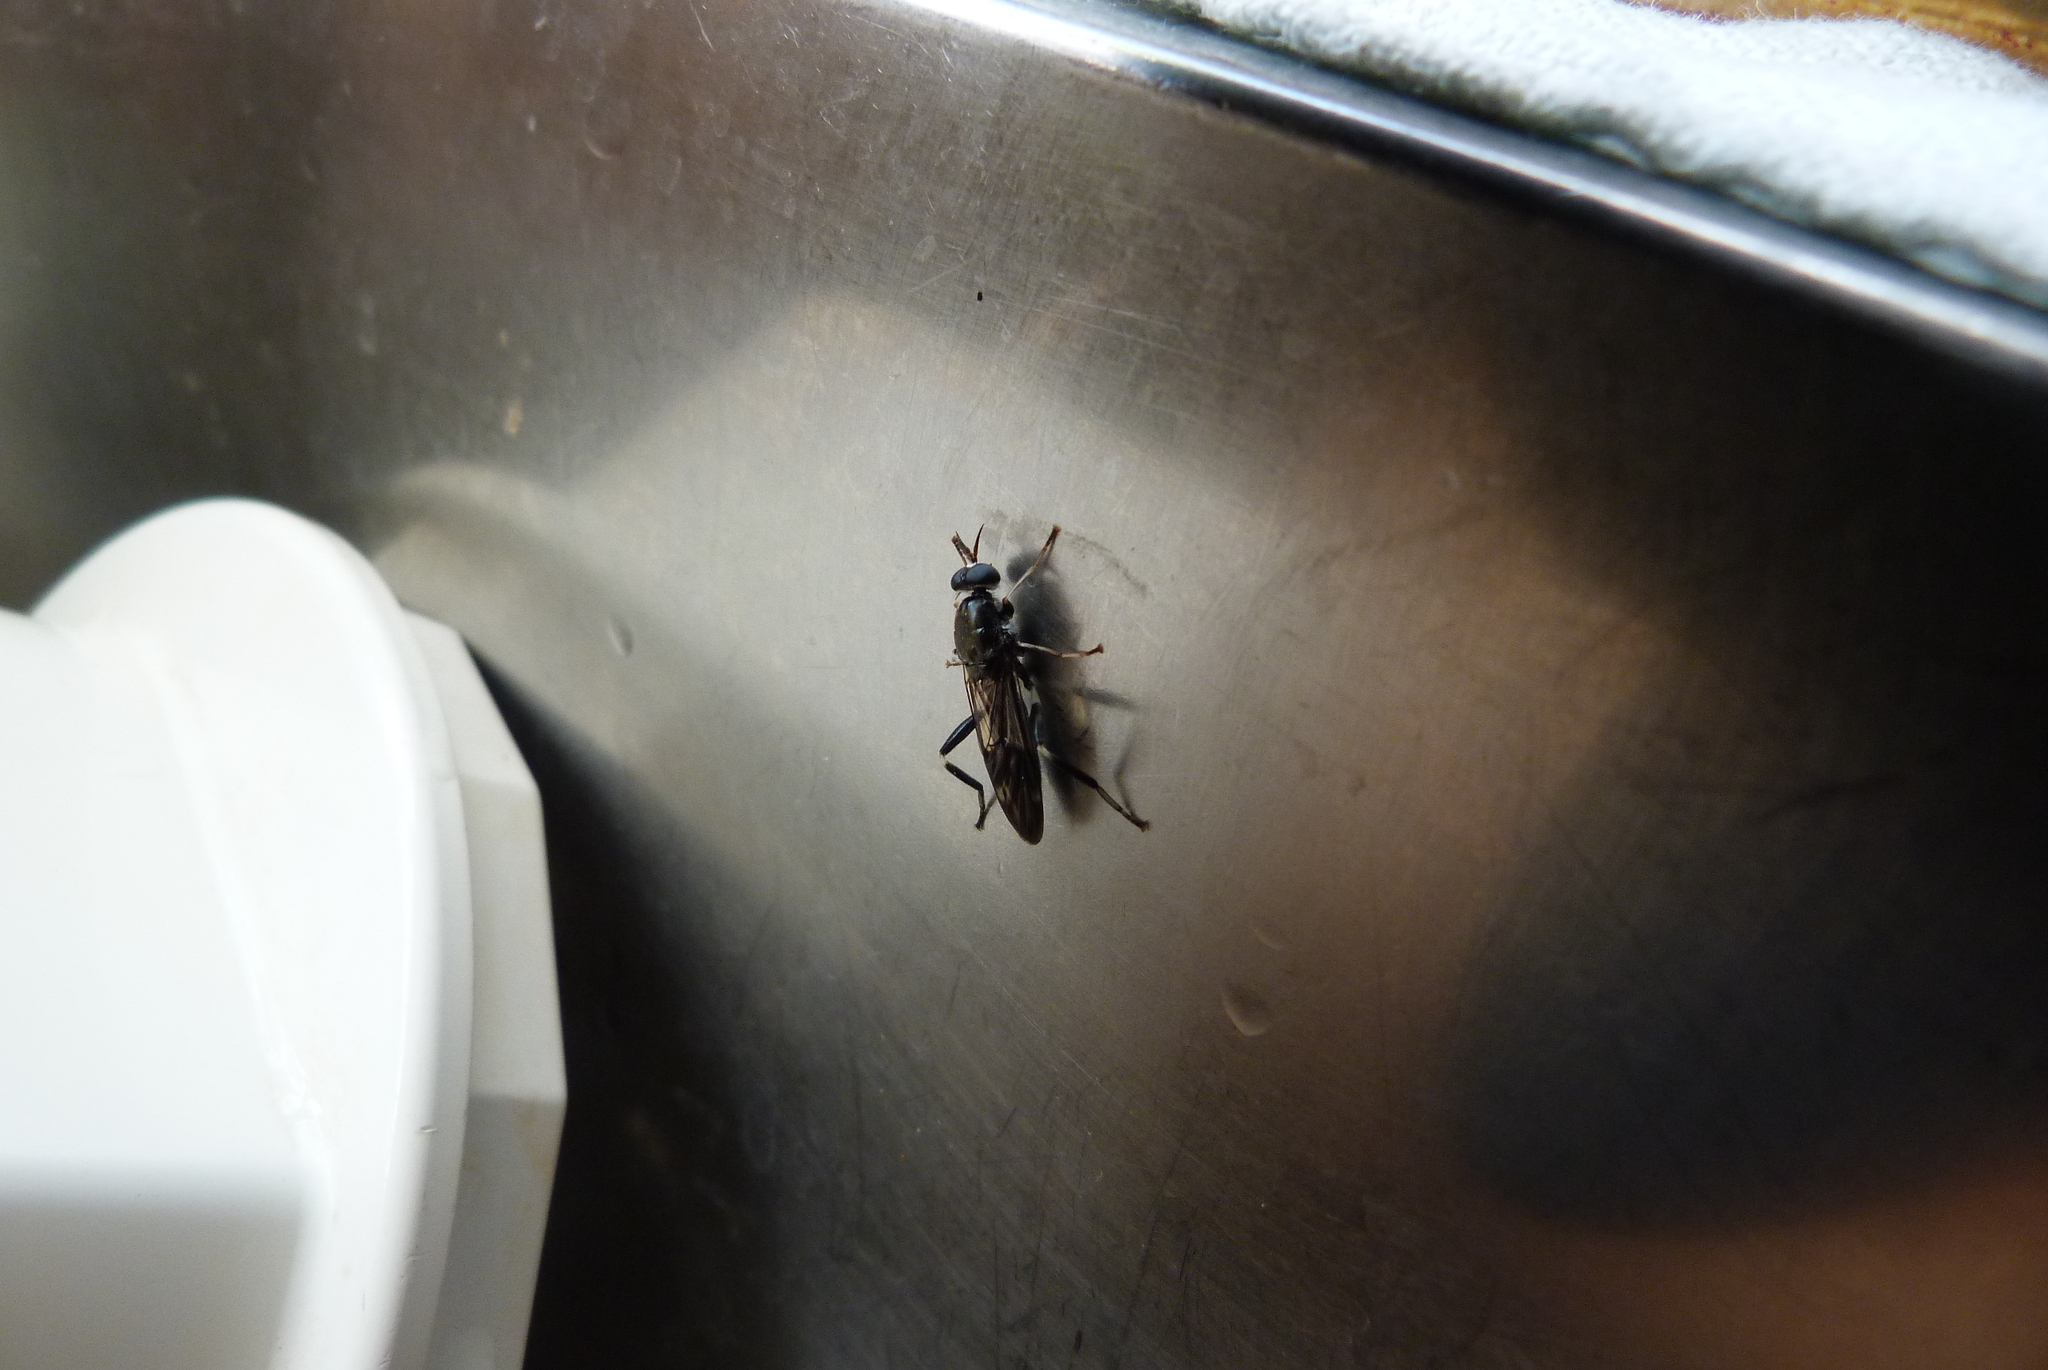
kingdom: Animalia
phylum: Arthropoda
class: Insecta
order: Diptera
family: Stratiomyidae
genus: Exaireta
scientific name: Exaireta spinigera
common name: Blue soldier fly
